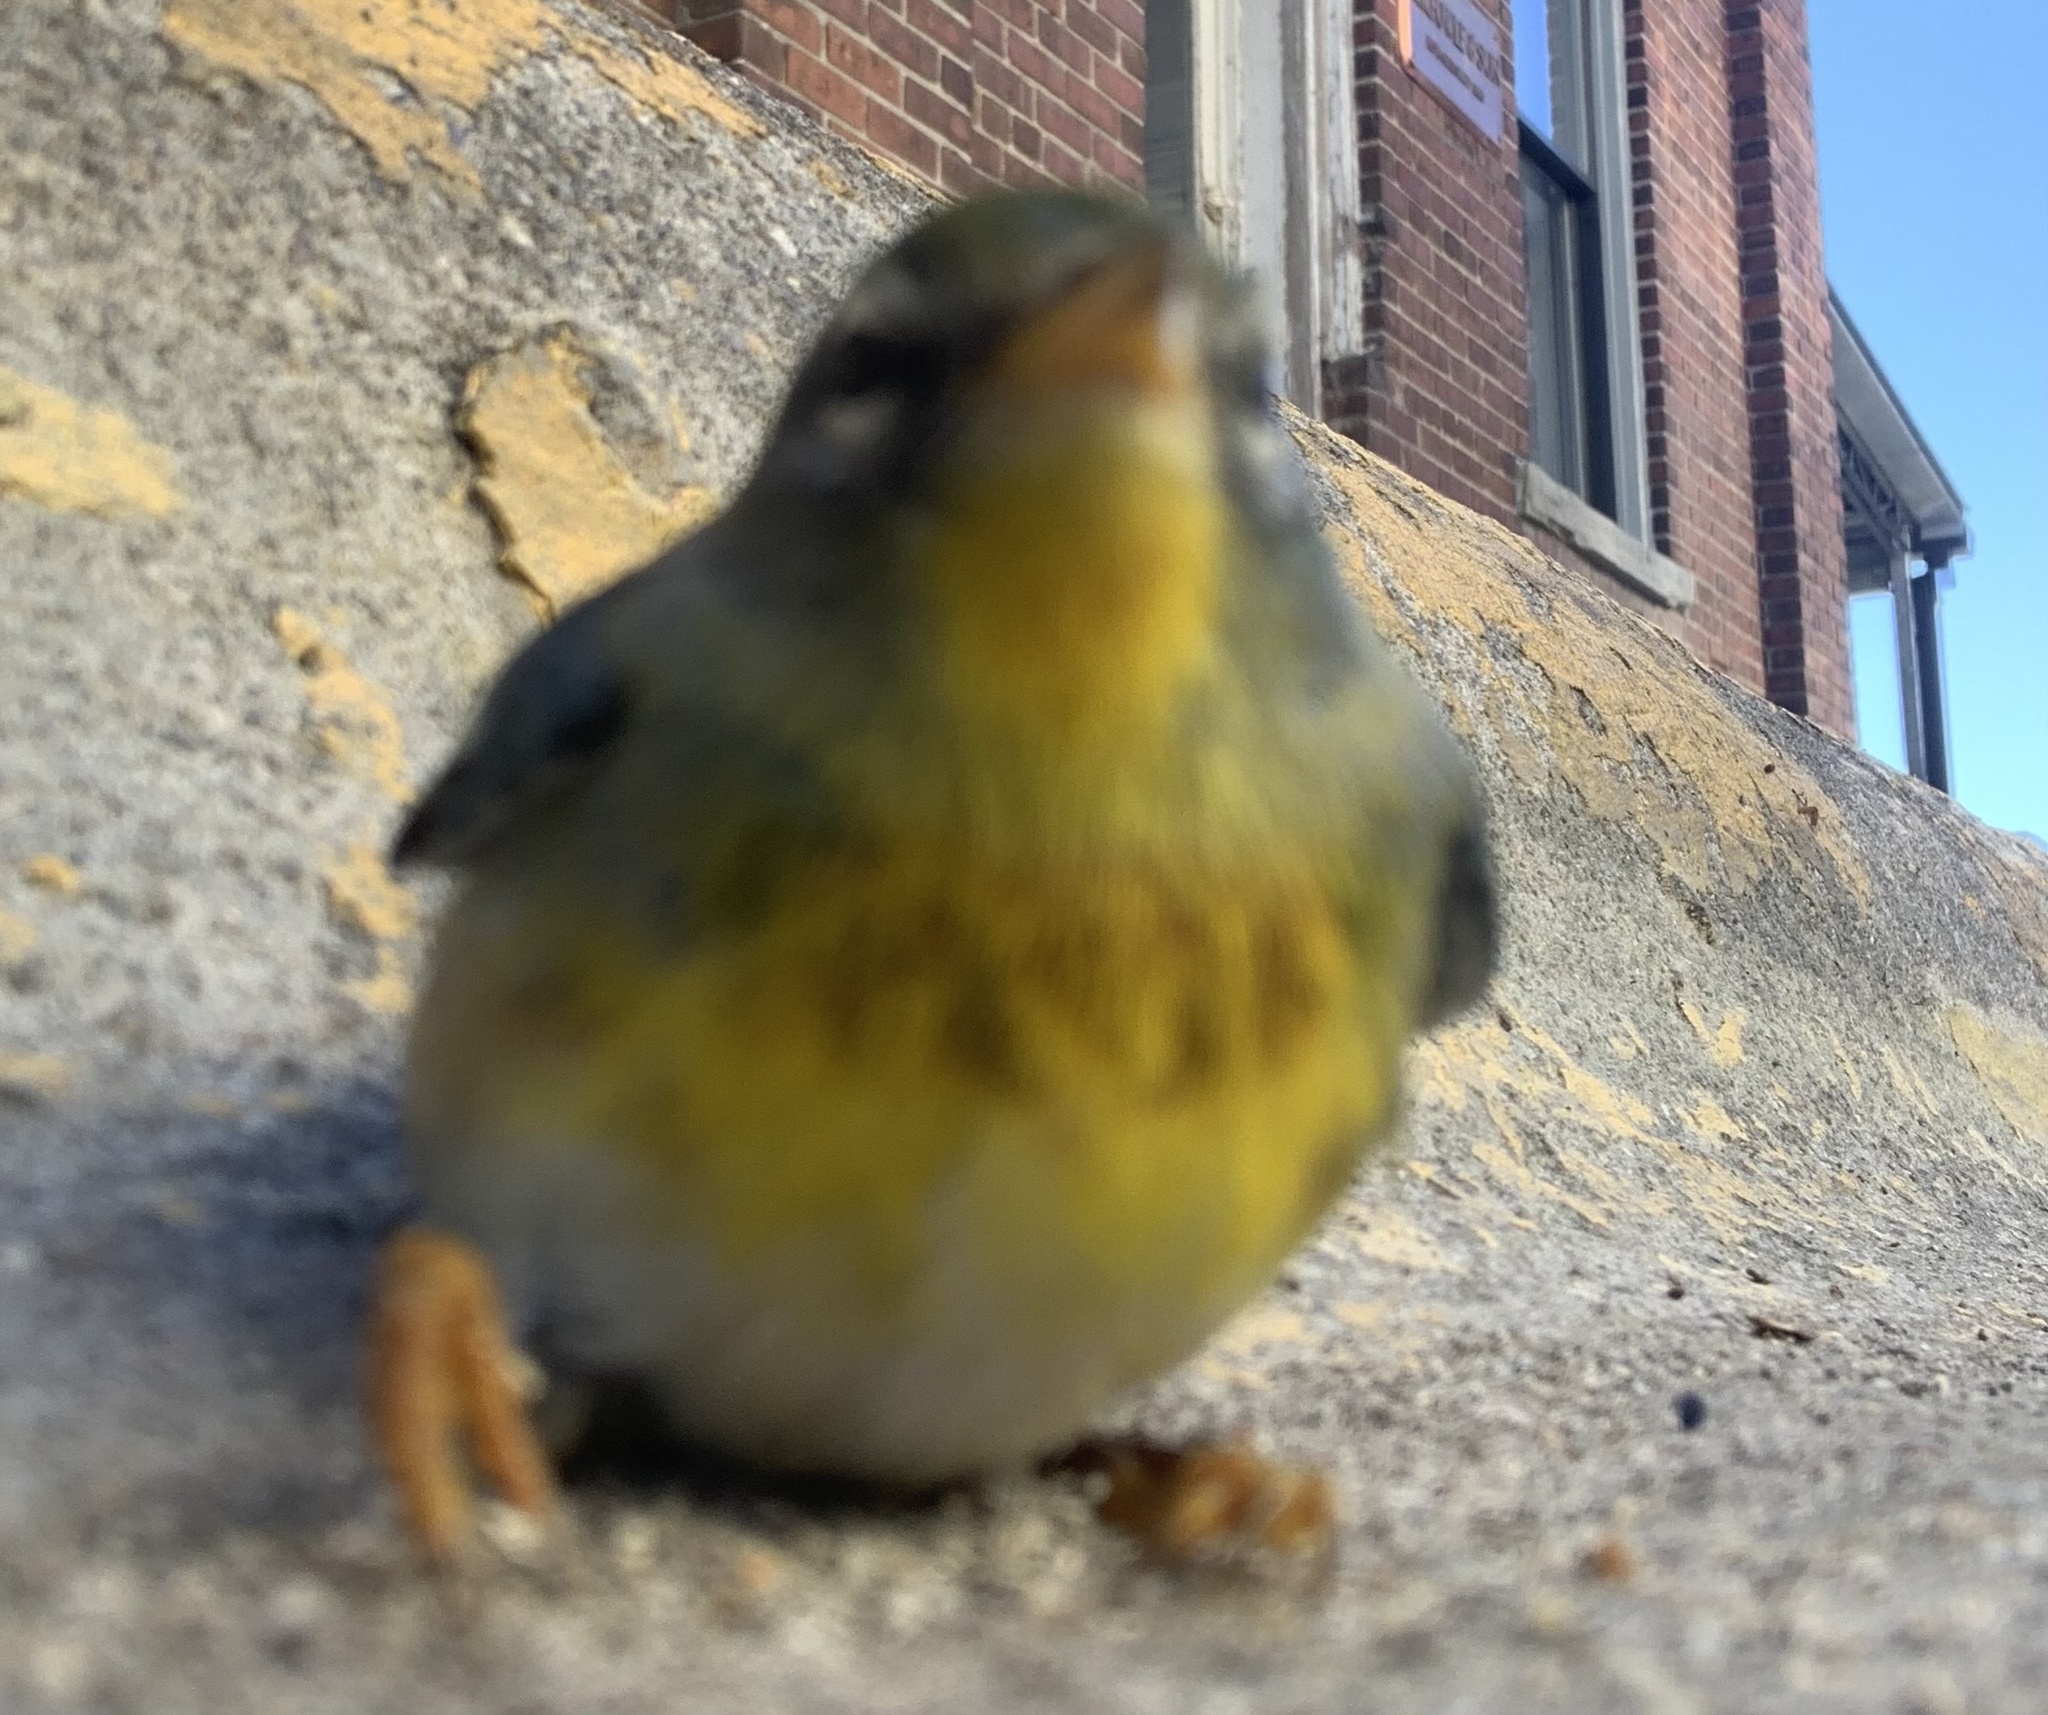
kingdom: Animalia
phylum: Chordata
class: Aves
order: Passeriformes
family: Parulidae
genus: Setophaga
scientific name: Setophaga americana
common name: Northern parula
